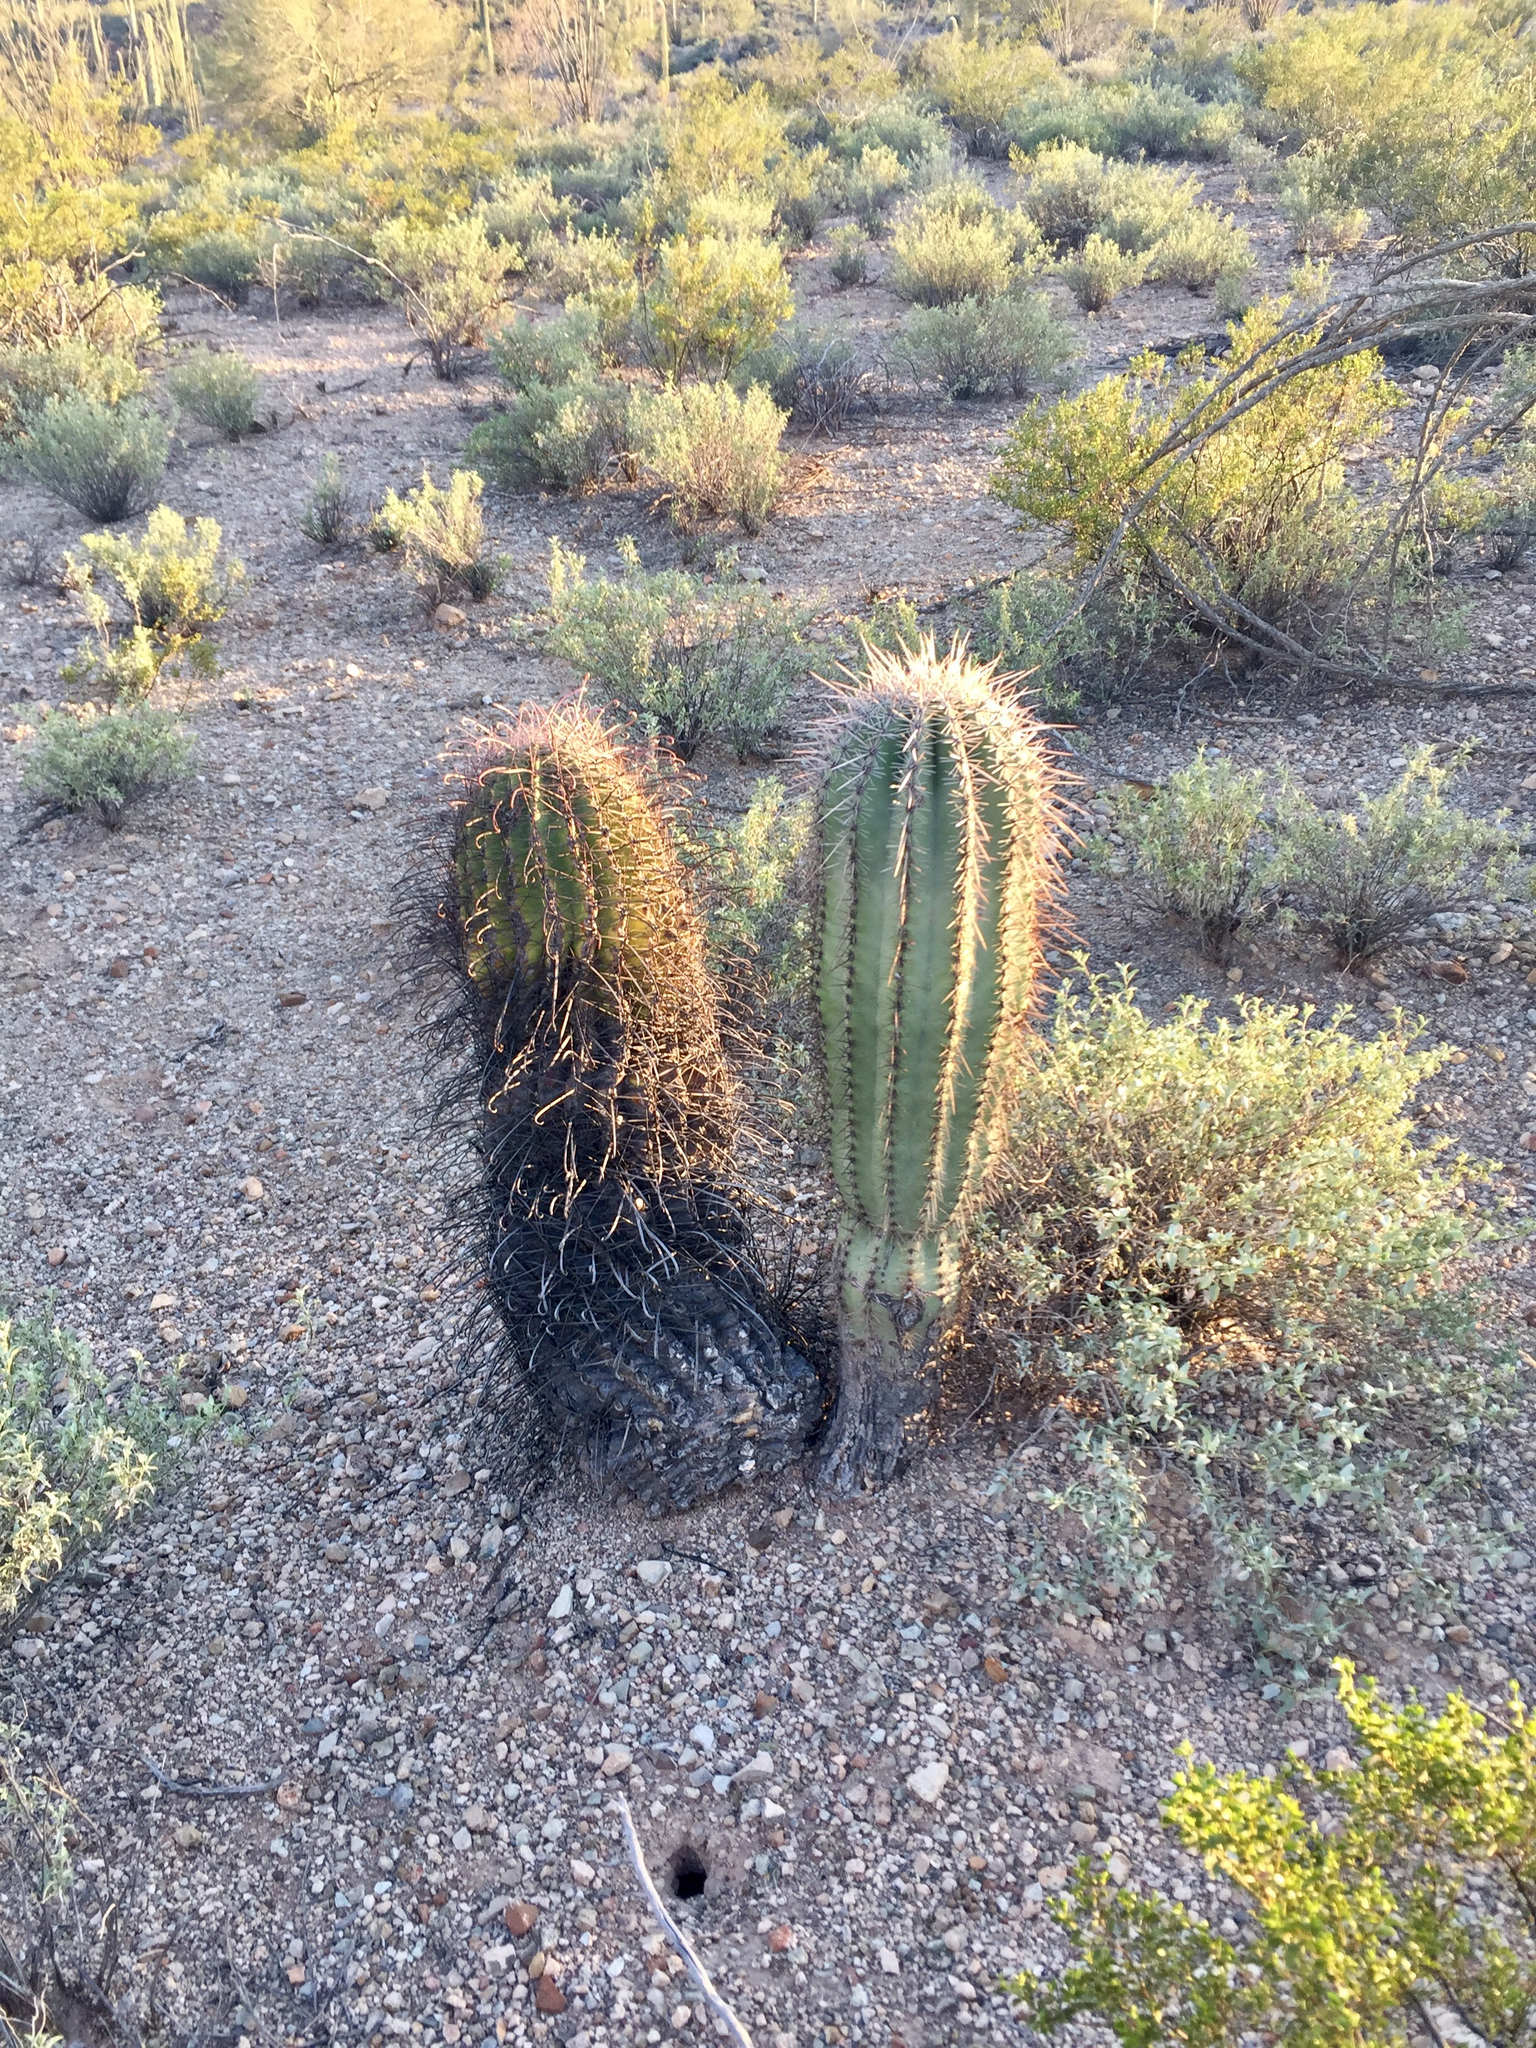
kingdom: Plantae
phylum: Tracheophyta
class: Magnoliopsida
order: Caryophyllales
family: Cactaceae
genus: Ferocactus
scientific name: Ferocactus wislizeni
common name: Candy barrel cactus
